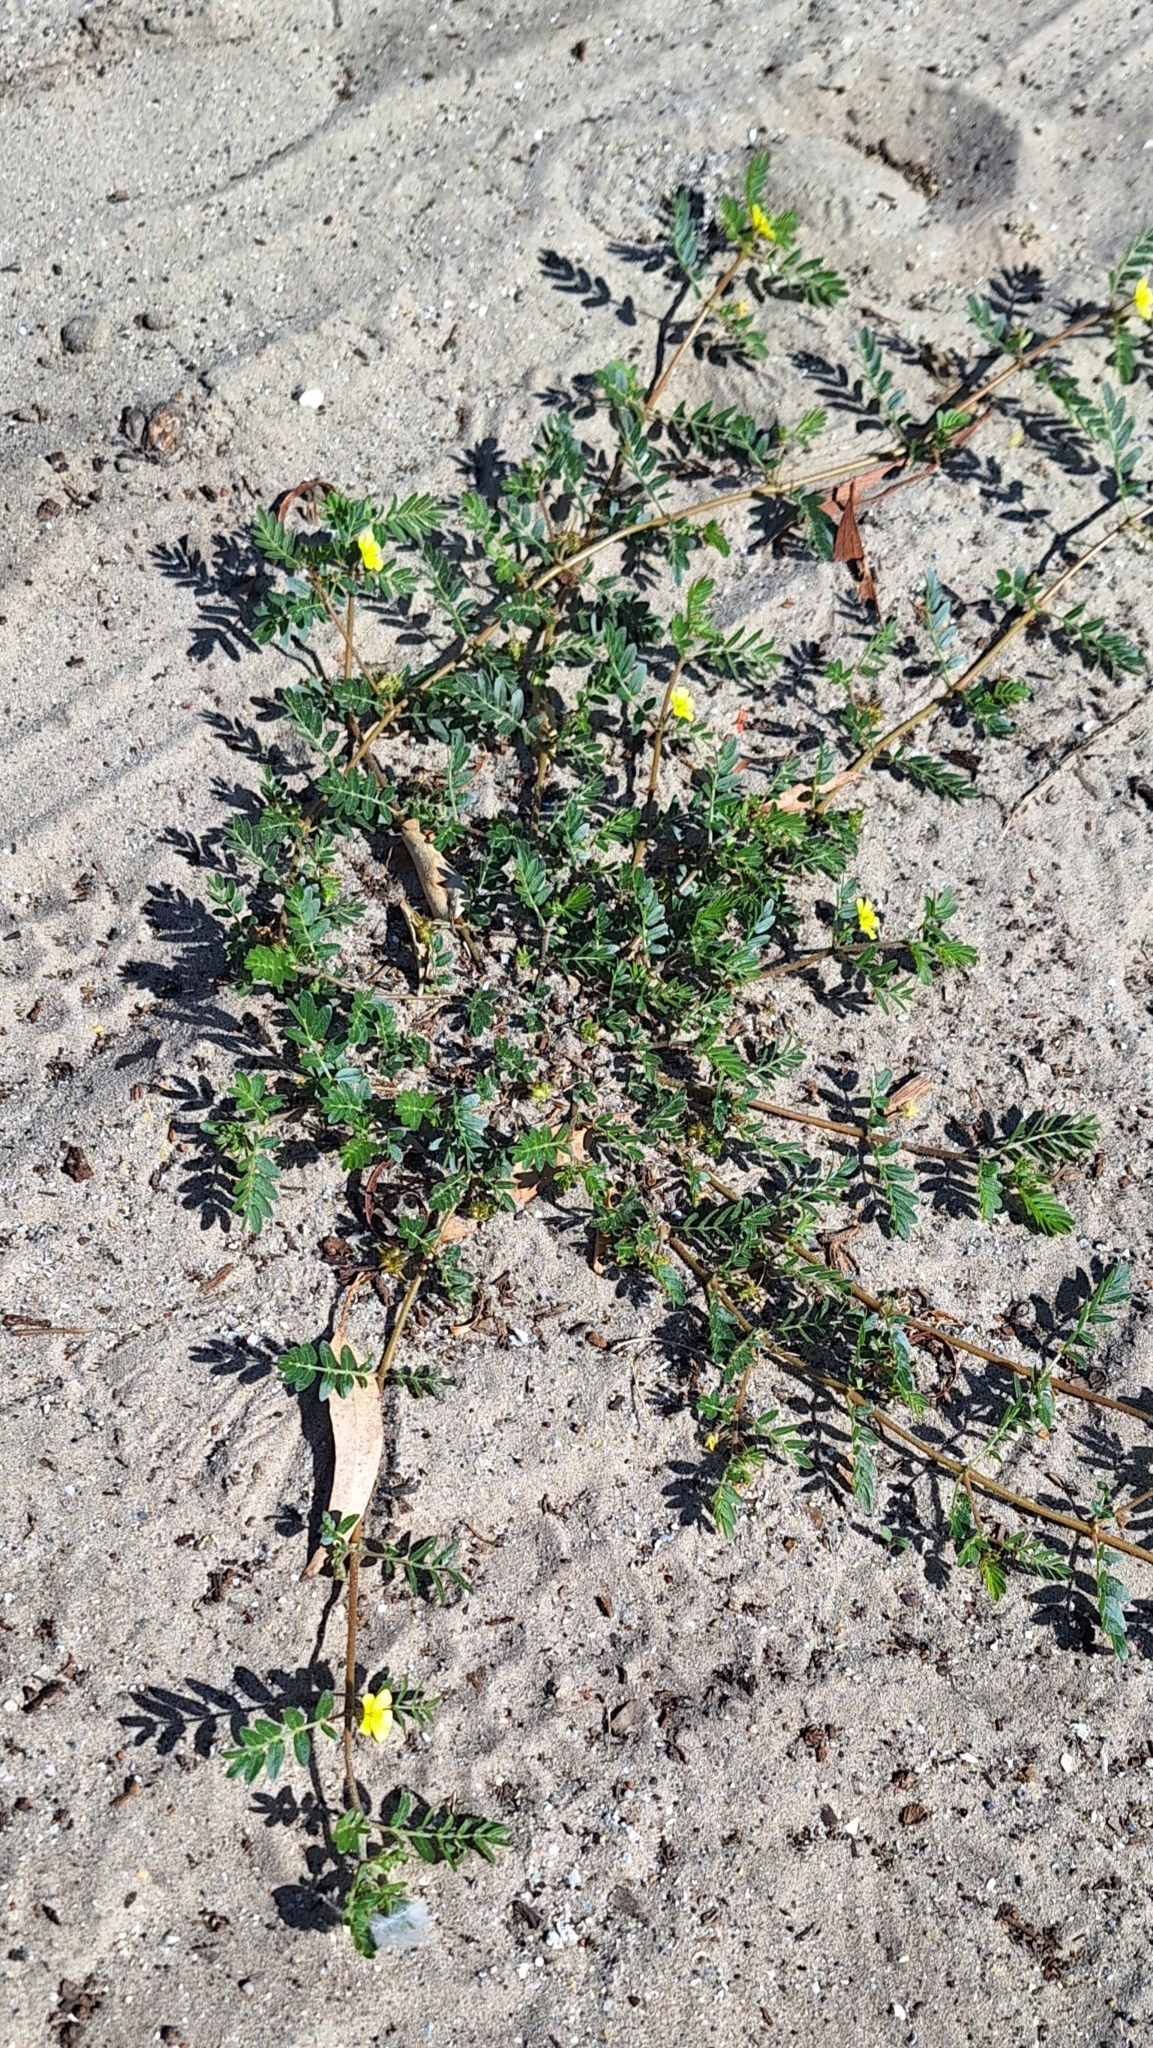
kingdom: Plantae
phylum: Tracheophyta
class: Magnoliopsida
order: Zygophyllales
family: Zygophyllaceae
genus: Tribulus
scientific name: Tribulus terrestris
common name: Puncturevine
